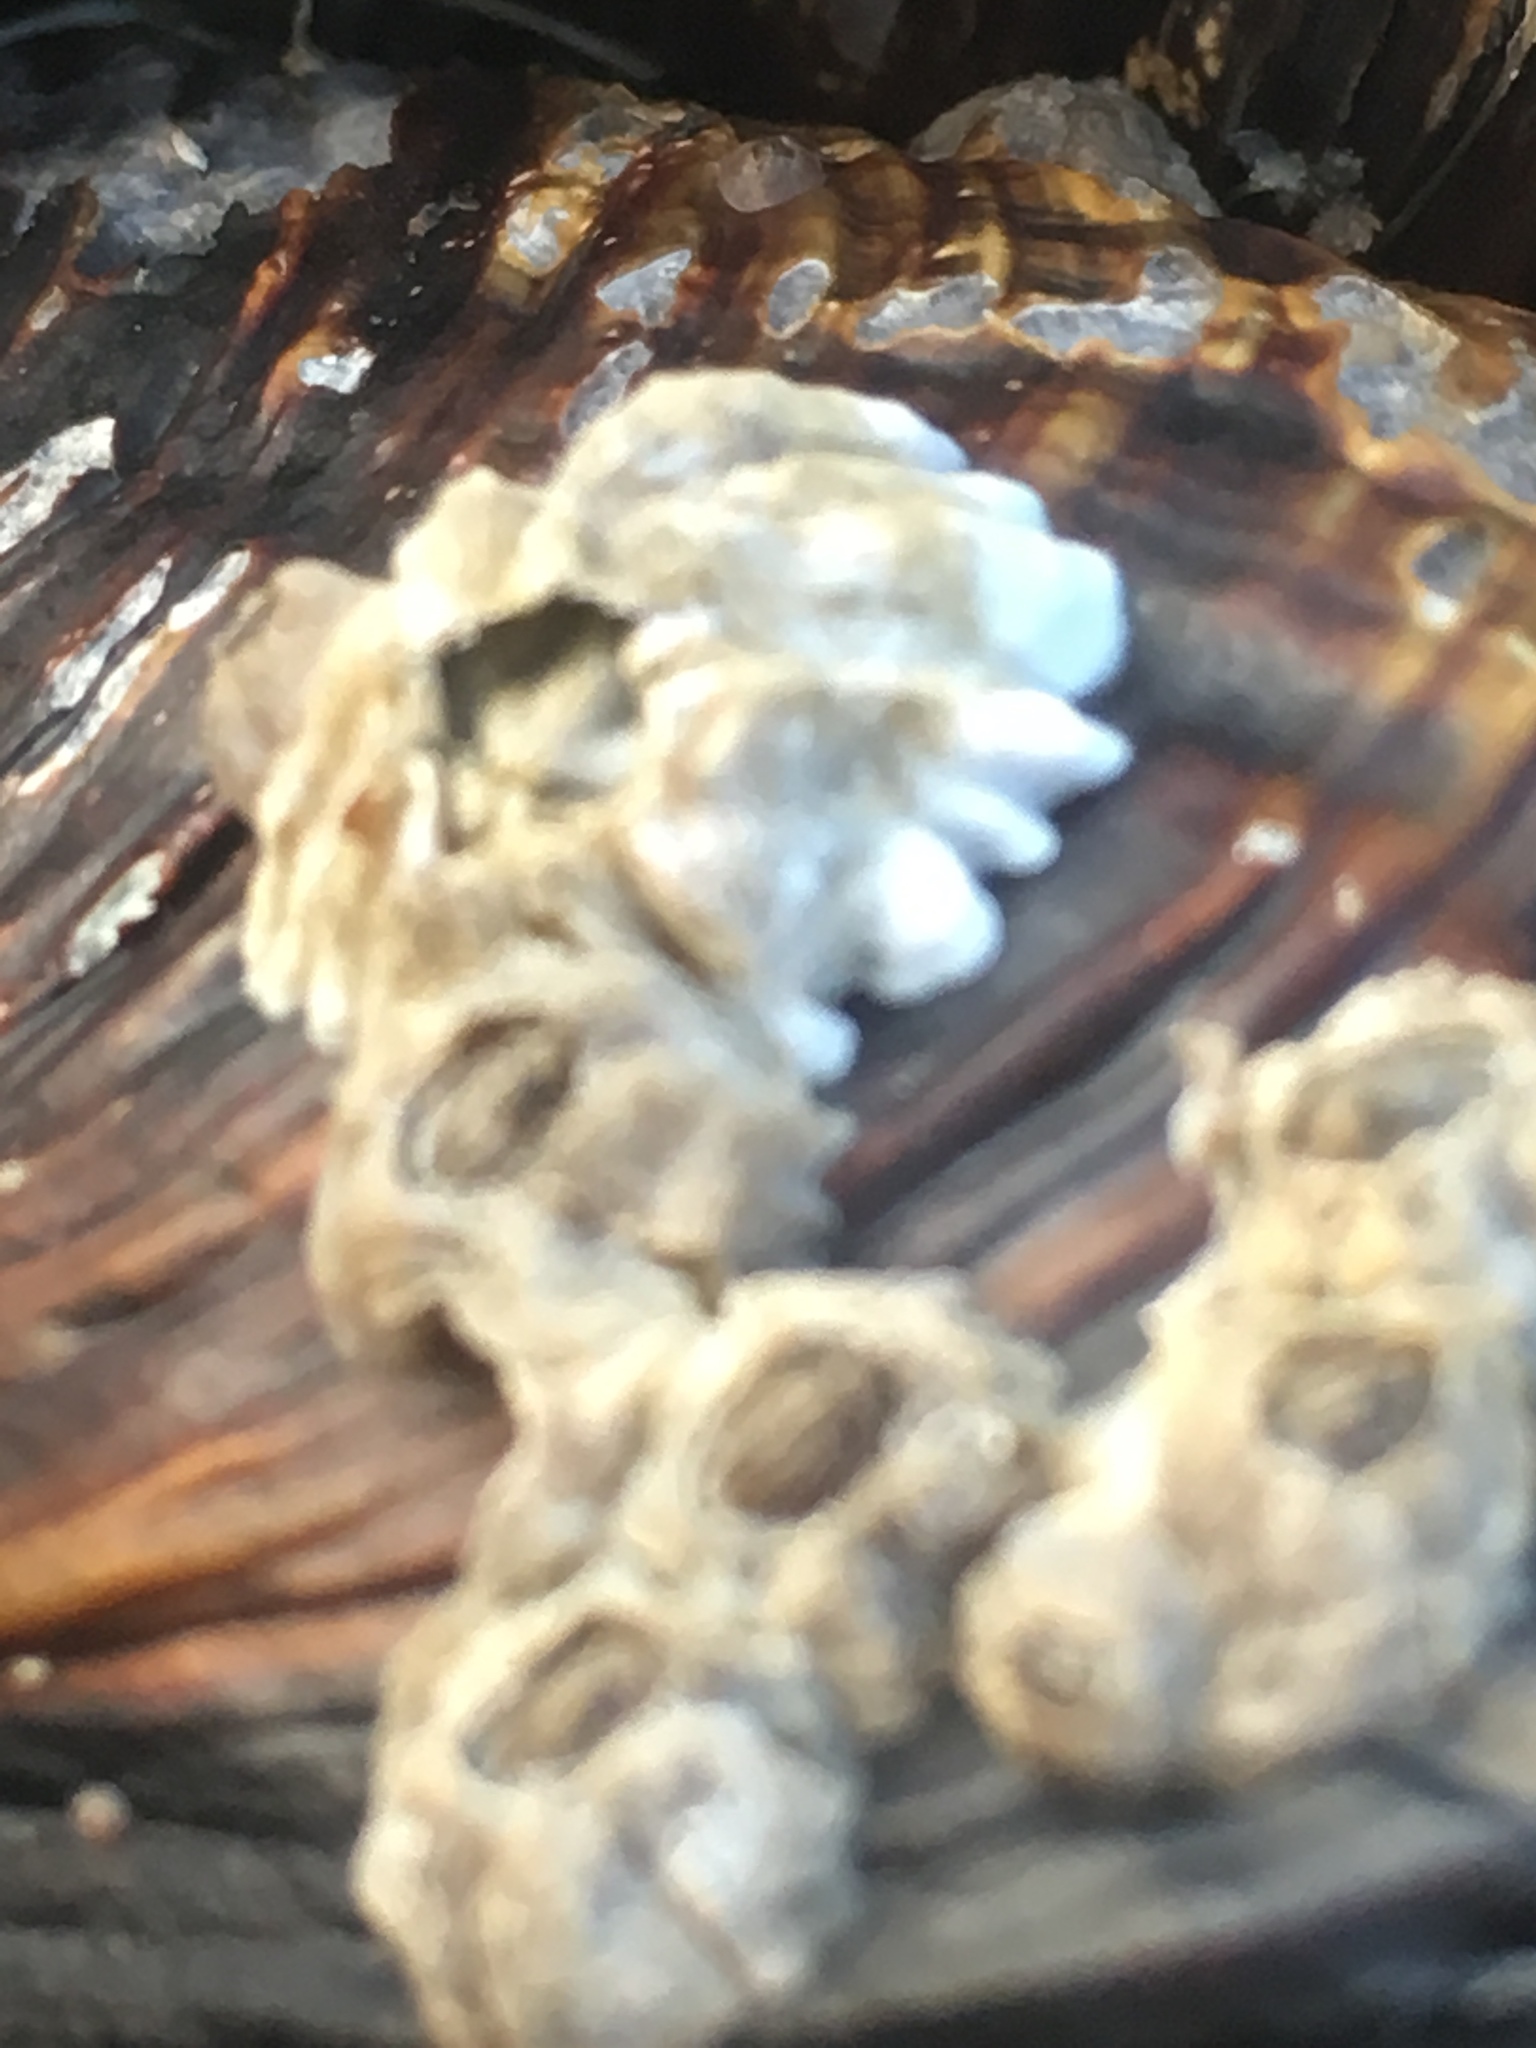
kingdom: Animalia
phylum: Arthropoda
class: Maxillopoda
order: Sessilia
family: Balanidae
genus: Balanus
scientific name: Balanus glandula
